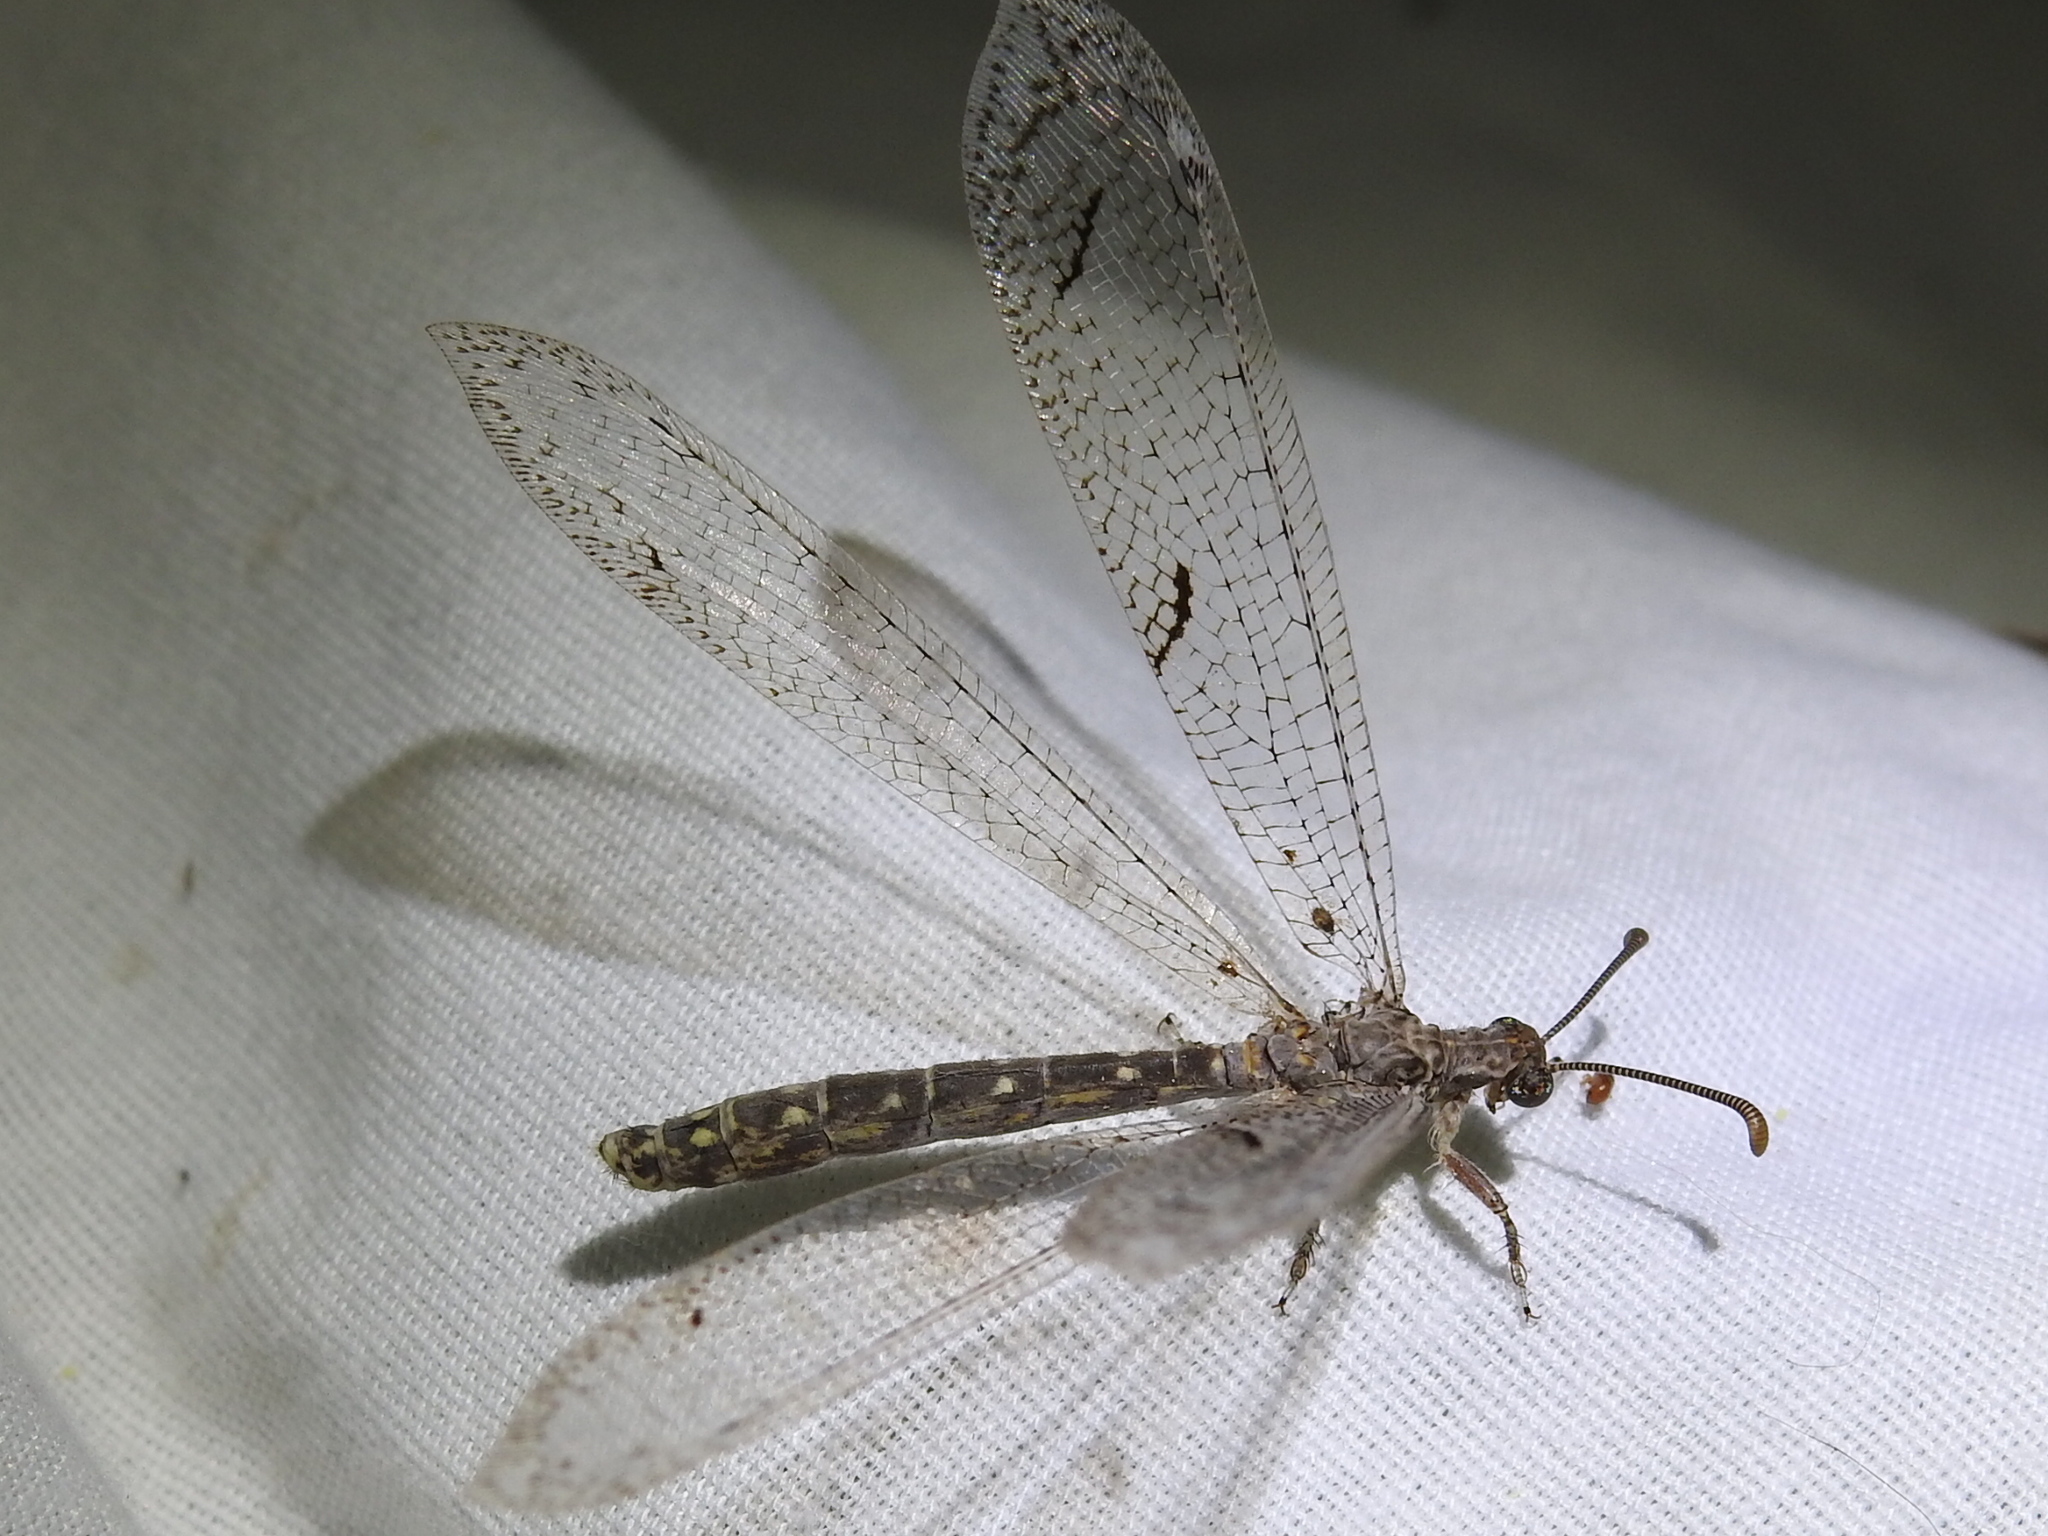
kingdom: Animalia
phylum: Arthropoda
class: Insecta
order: Neuroptera
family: Myrmeleontidae
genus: Euptilon
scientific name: Euptilon ornatum
